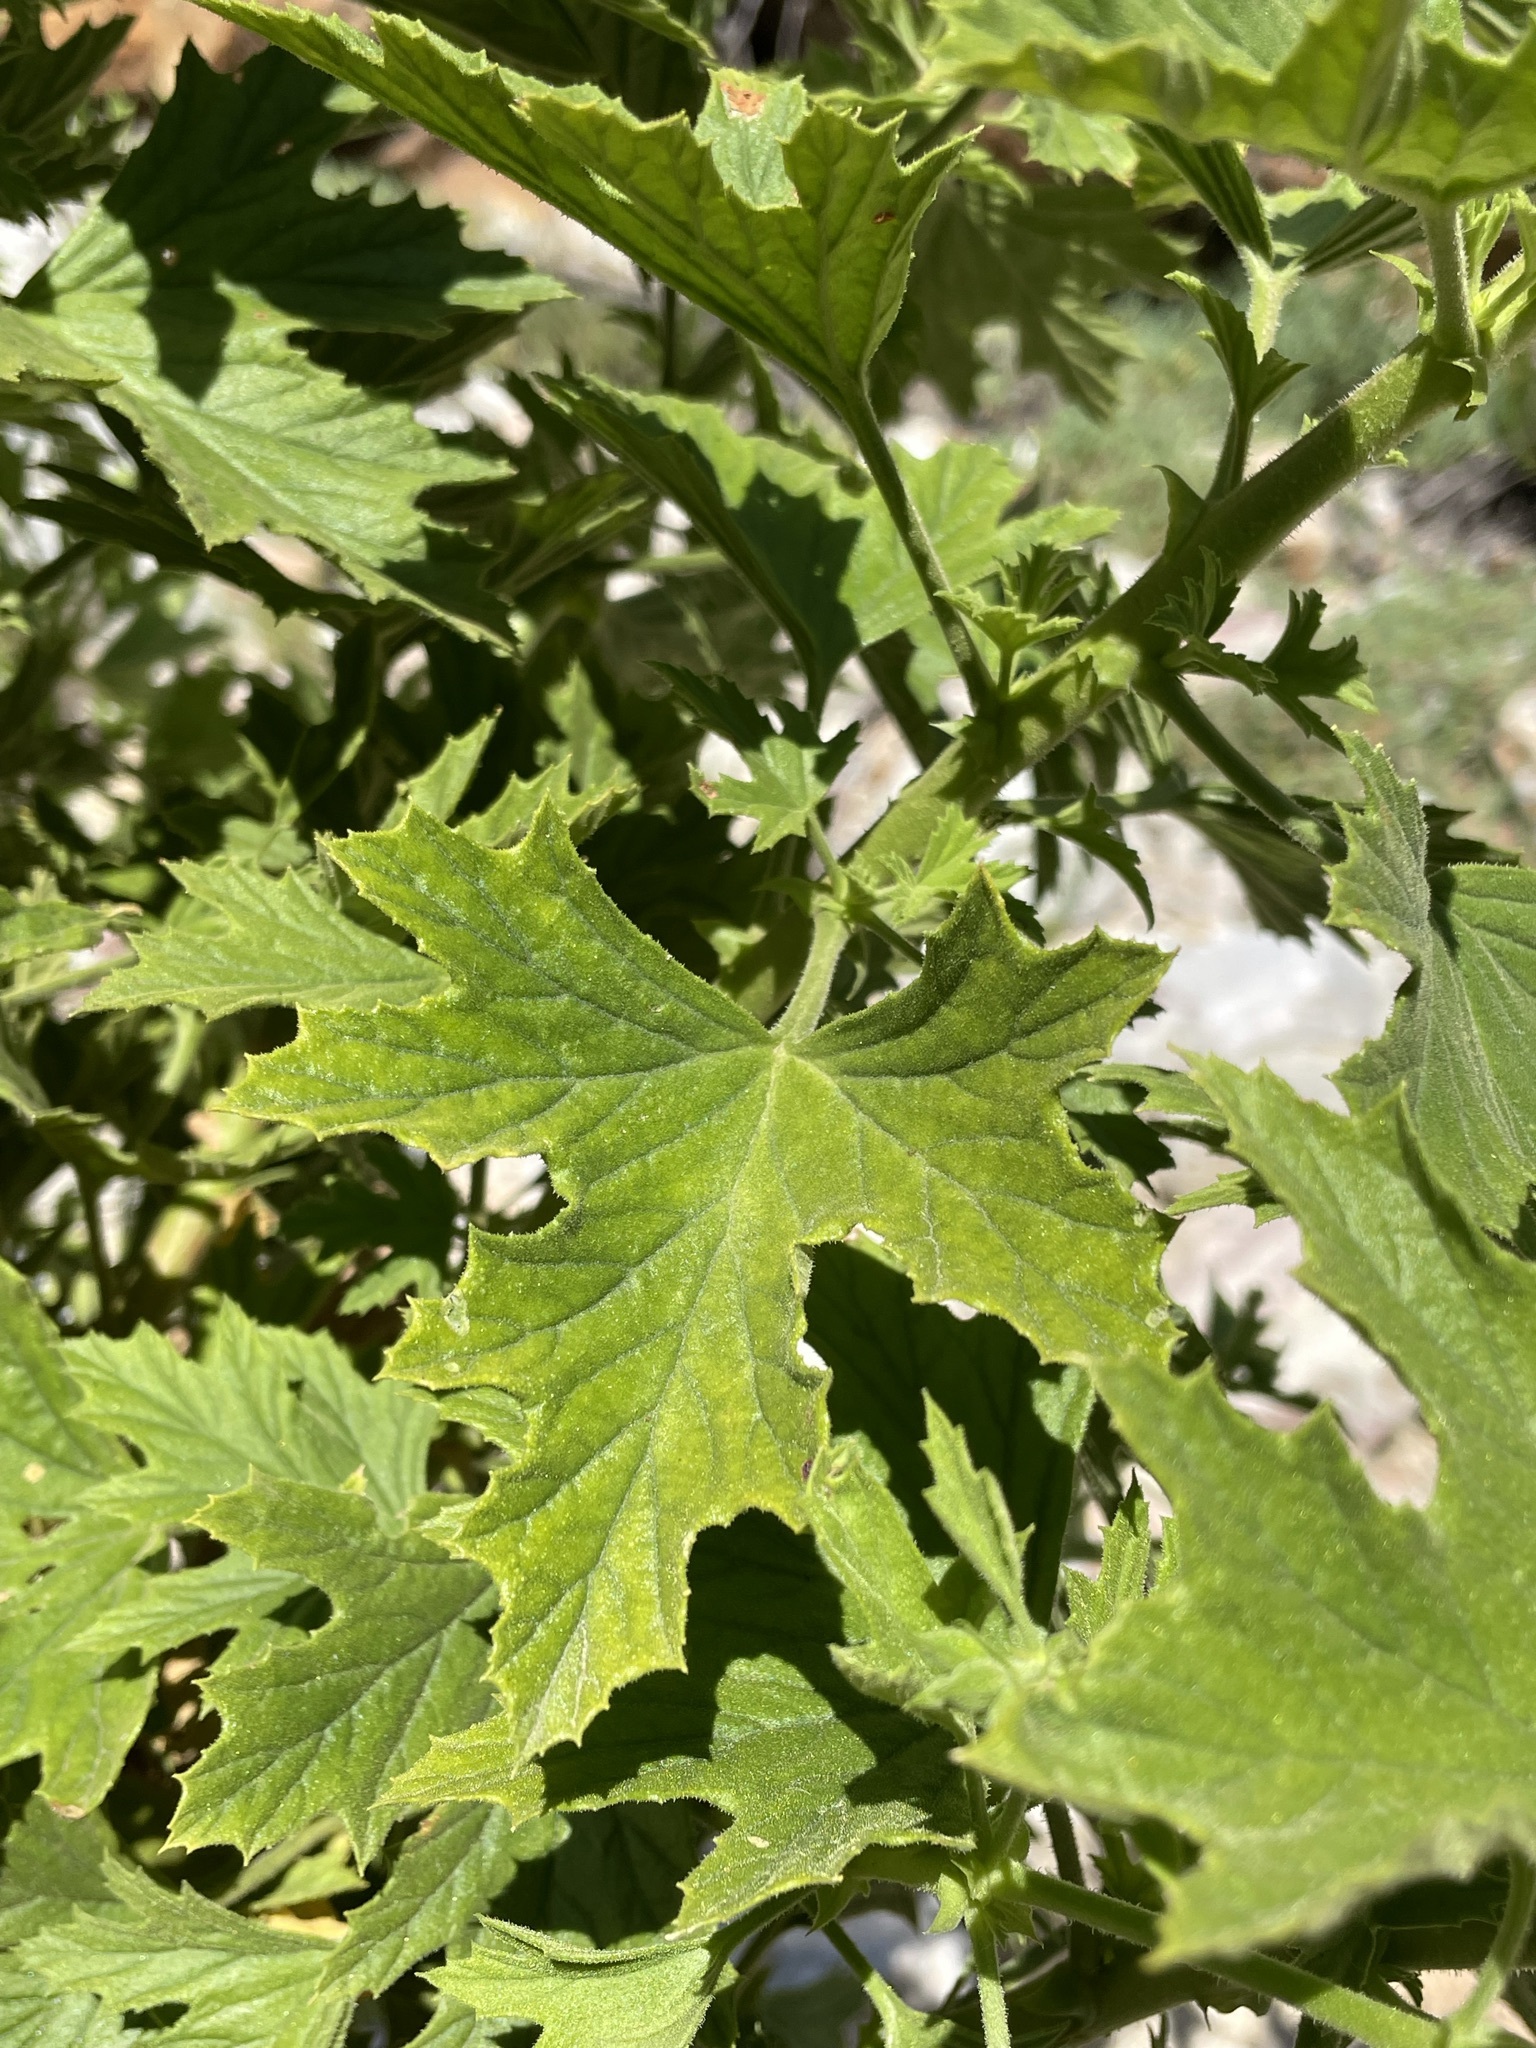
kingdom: Plantae
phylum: Tracheophyta
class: Magnoliopsida
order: Geraniales
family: Geraniaceae
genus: Pelargonium
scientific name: Pelargonium ribifolium
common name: Currant-leaf pelargonium
